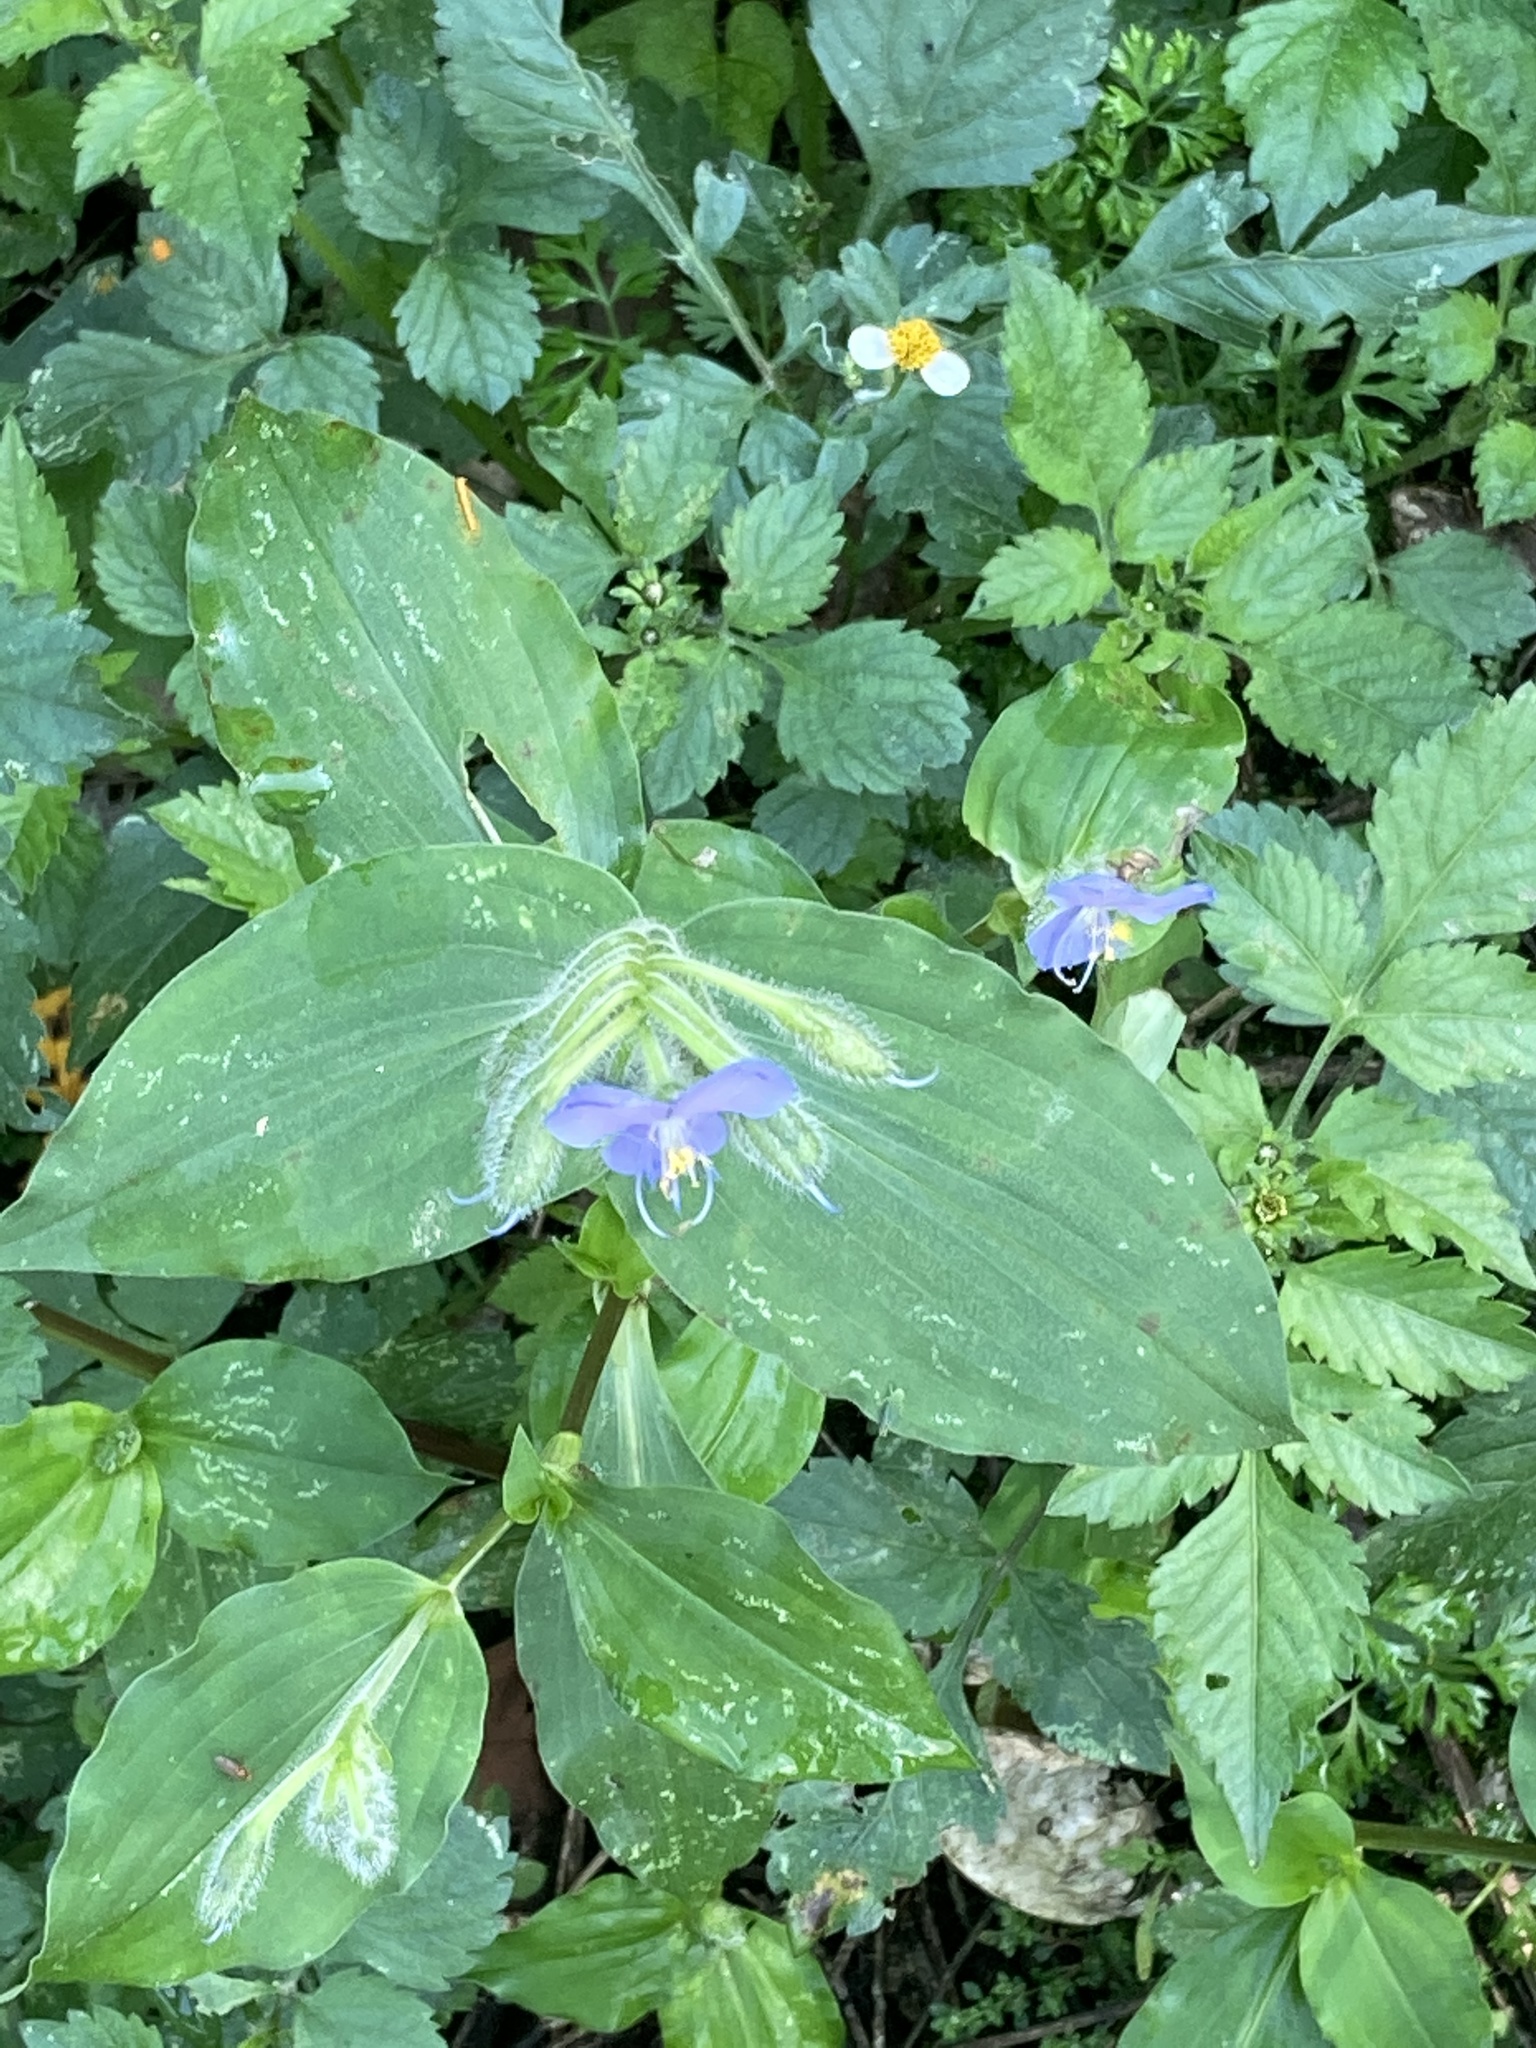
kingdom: Plantae
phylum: Tracheophyta
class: Liliopsida
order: Commelinales
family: Commelinaceae
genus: Commelina
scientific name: Commelina erecta
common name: Blousel blommetjie
